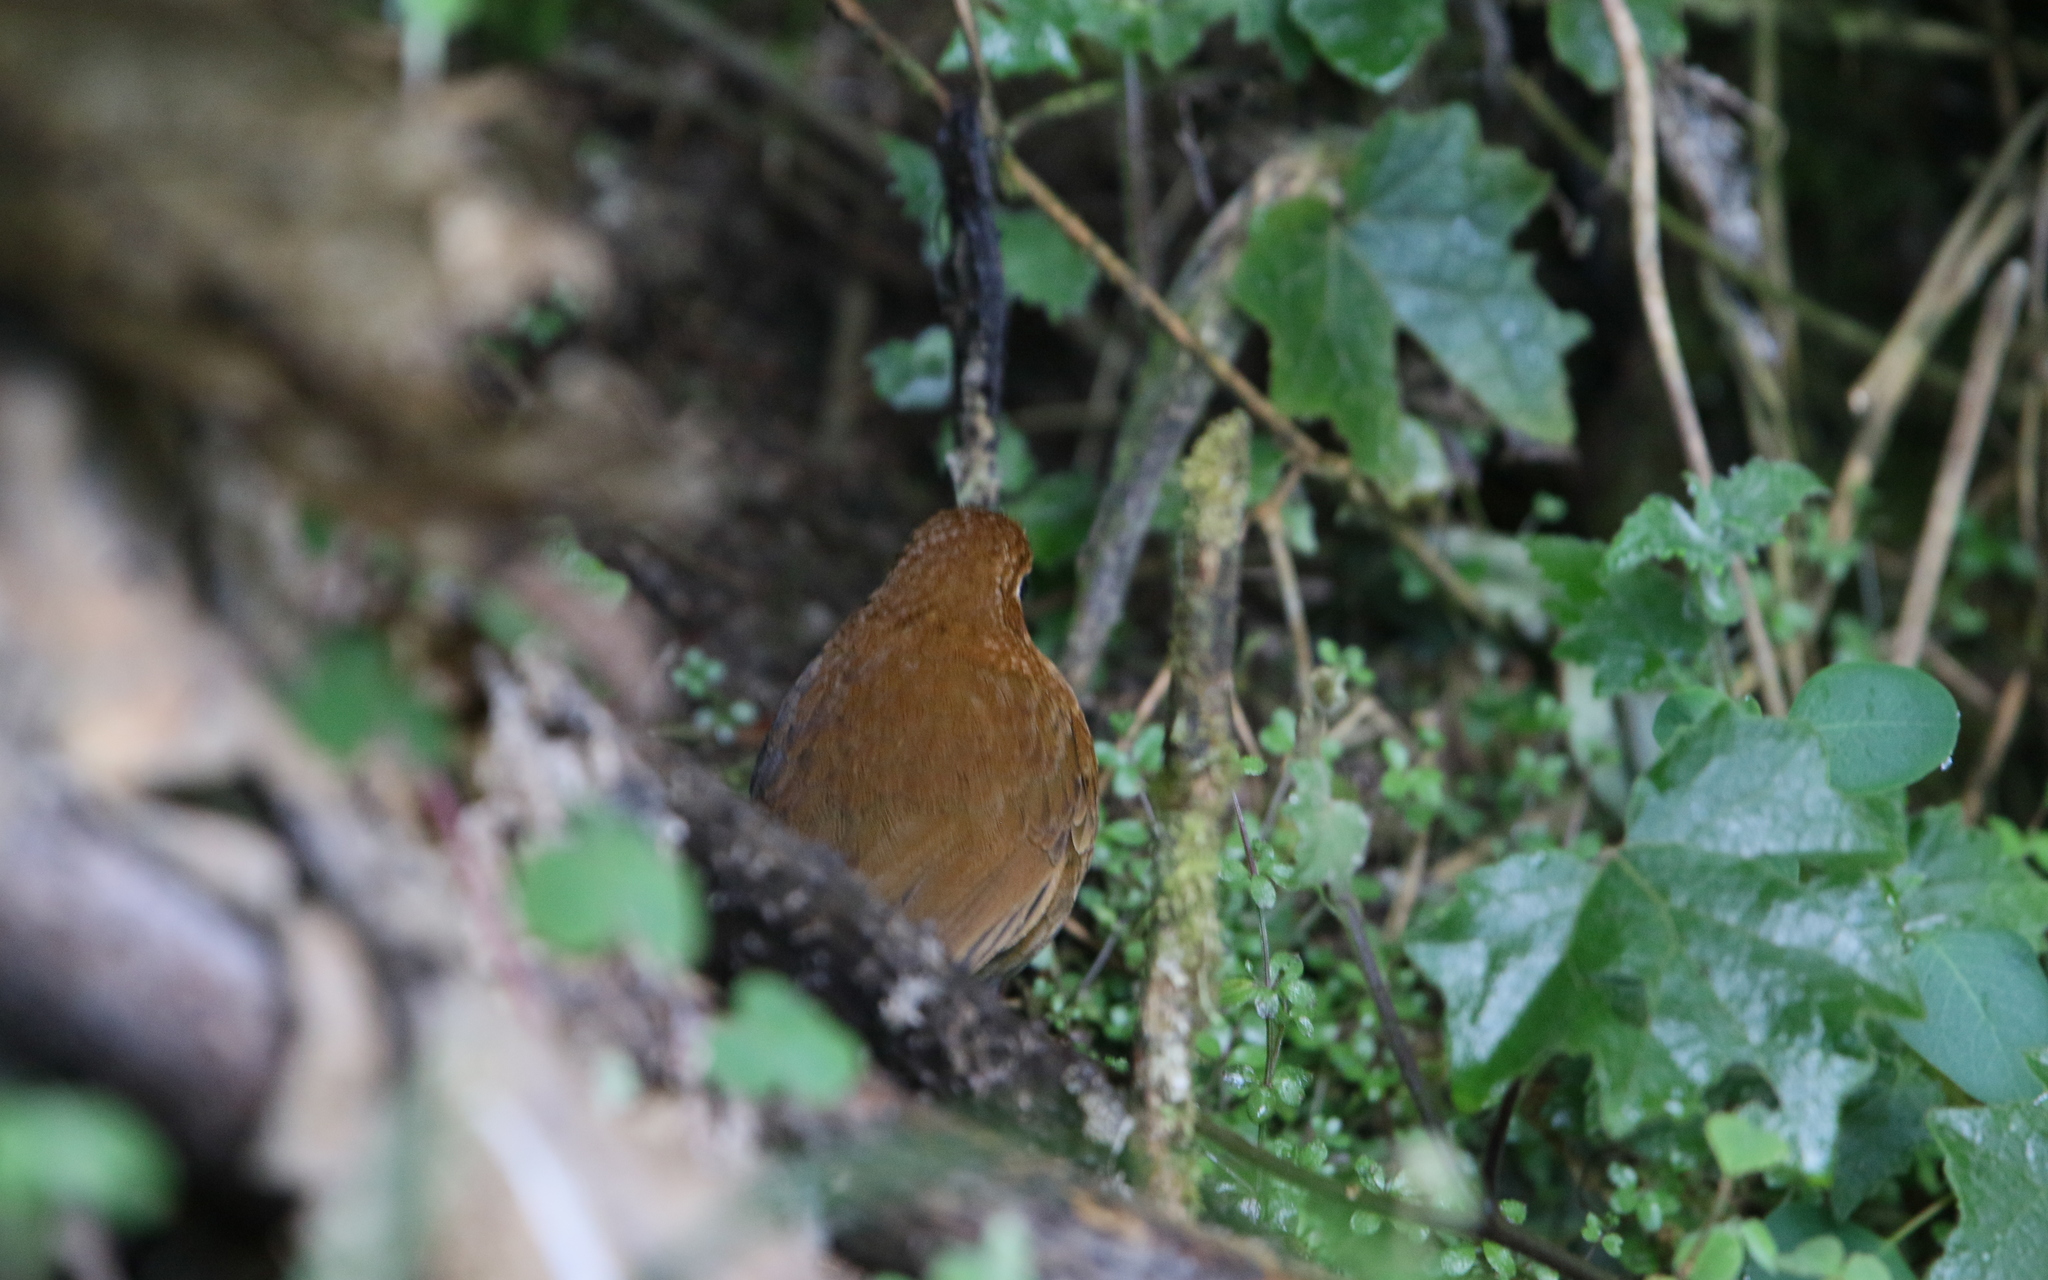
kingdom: Animalia
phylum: Chordata
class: Aves
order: Passeriformes
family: Grallariidae
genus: Grallaria
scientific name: Grallaria saturata
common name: Equatorial antpitta
